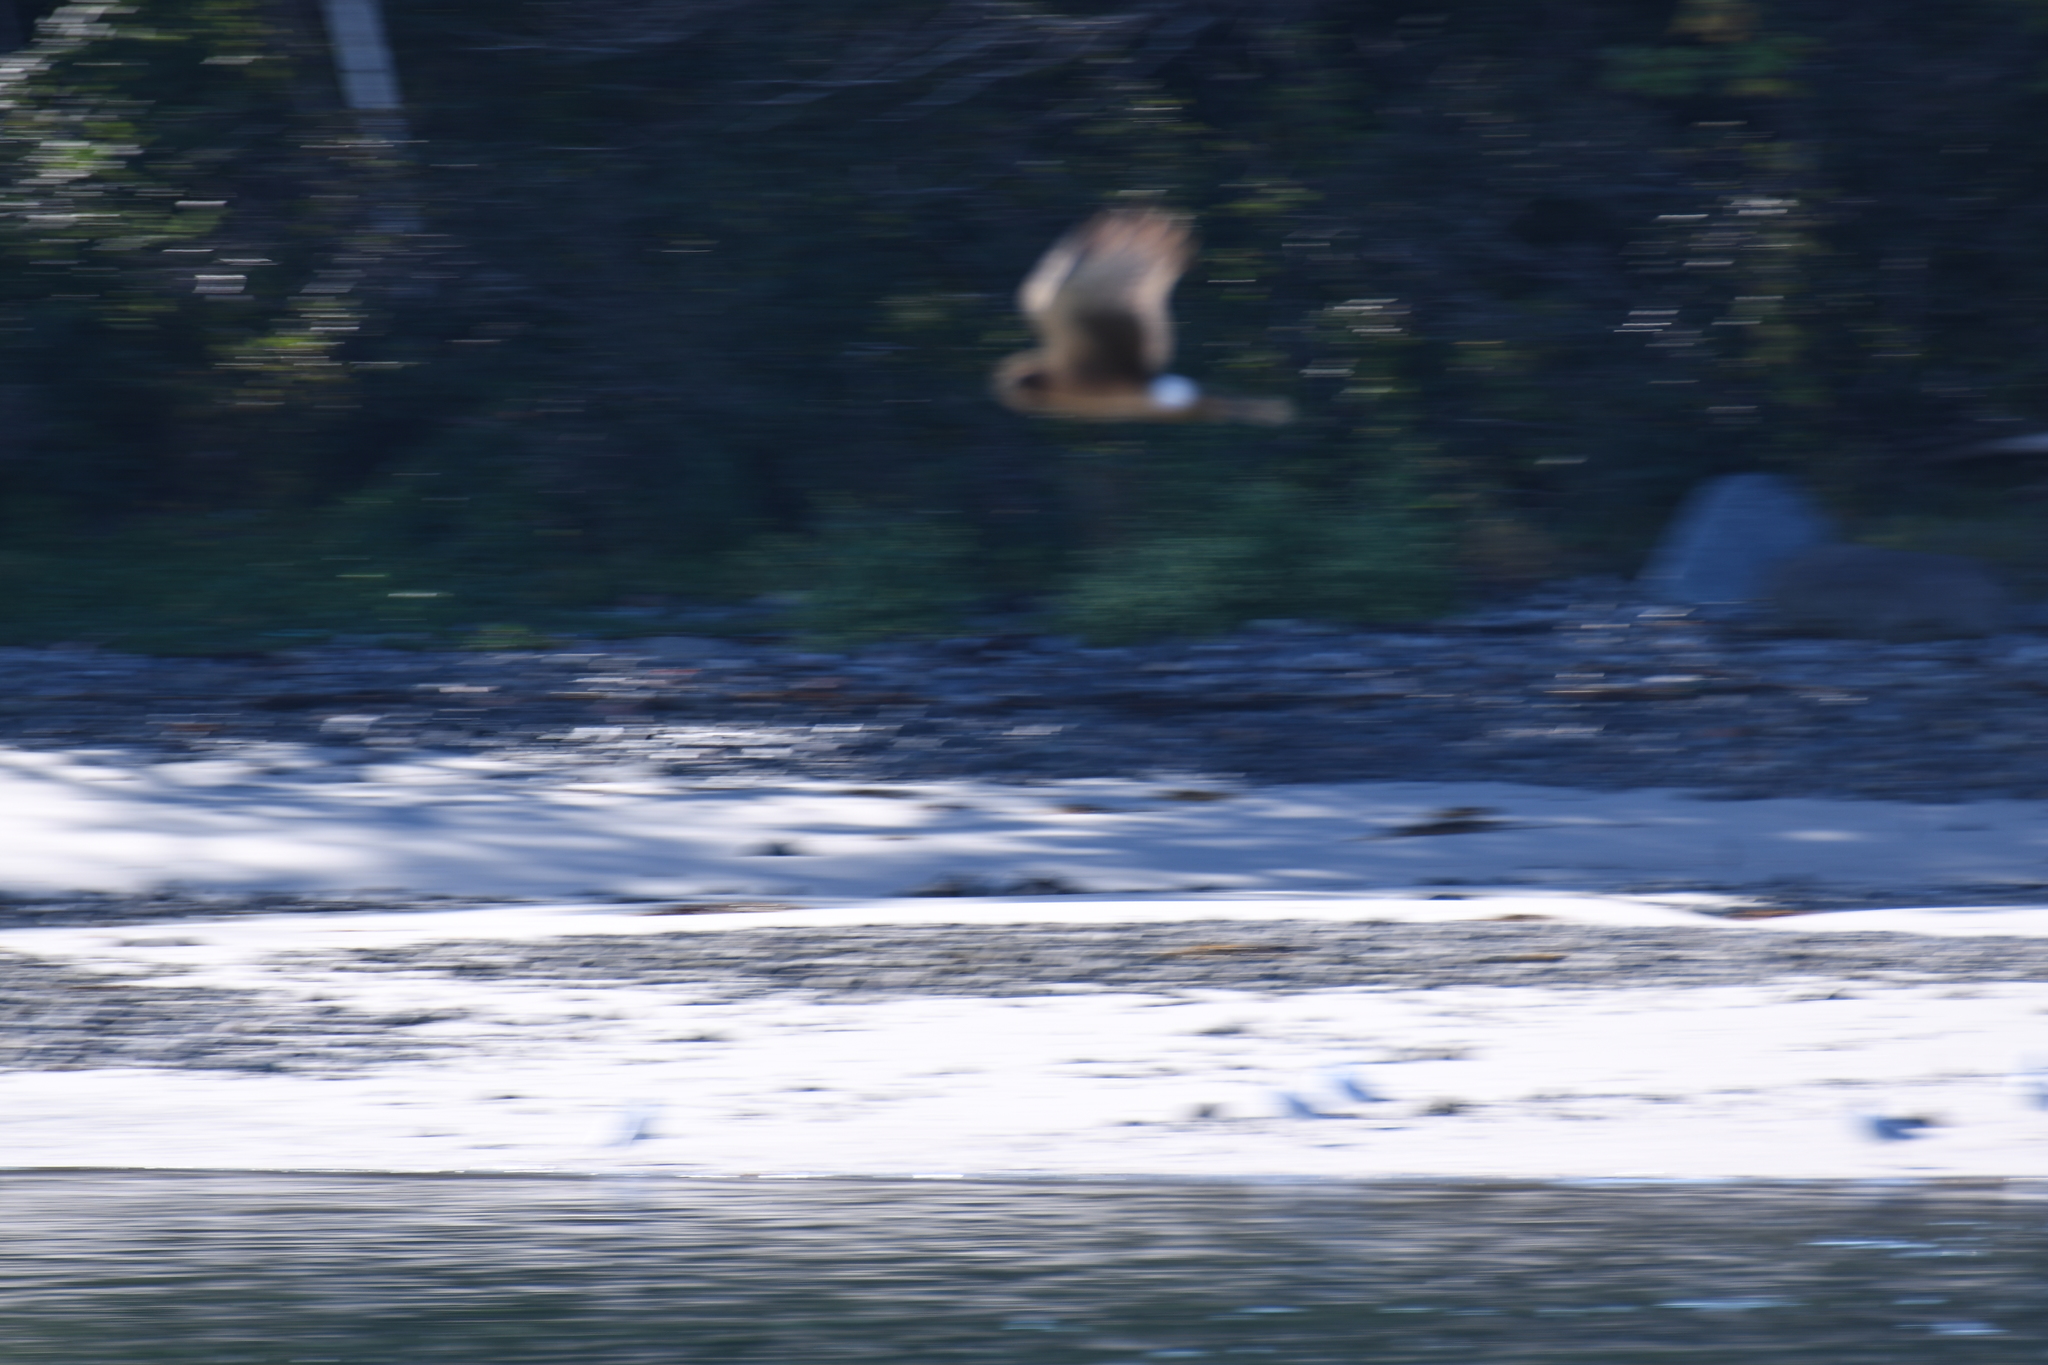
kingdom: Animalia
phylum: Chordata
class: Aves
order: Accipitriformes
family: Accipitridae
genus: Circus
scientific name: Circus cyaneus
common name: Hen harrier
